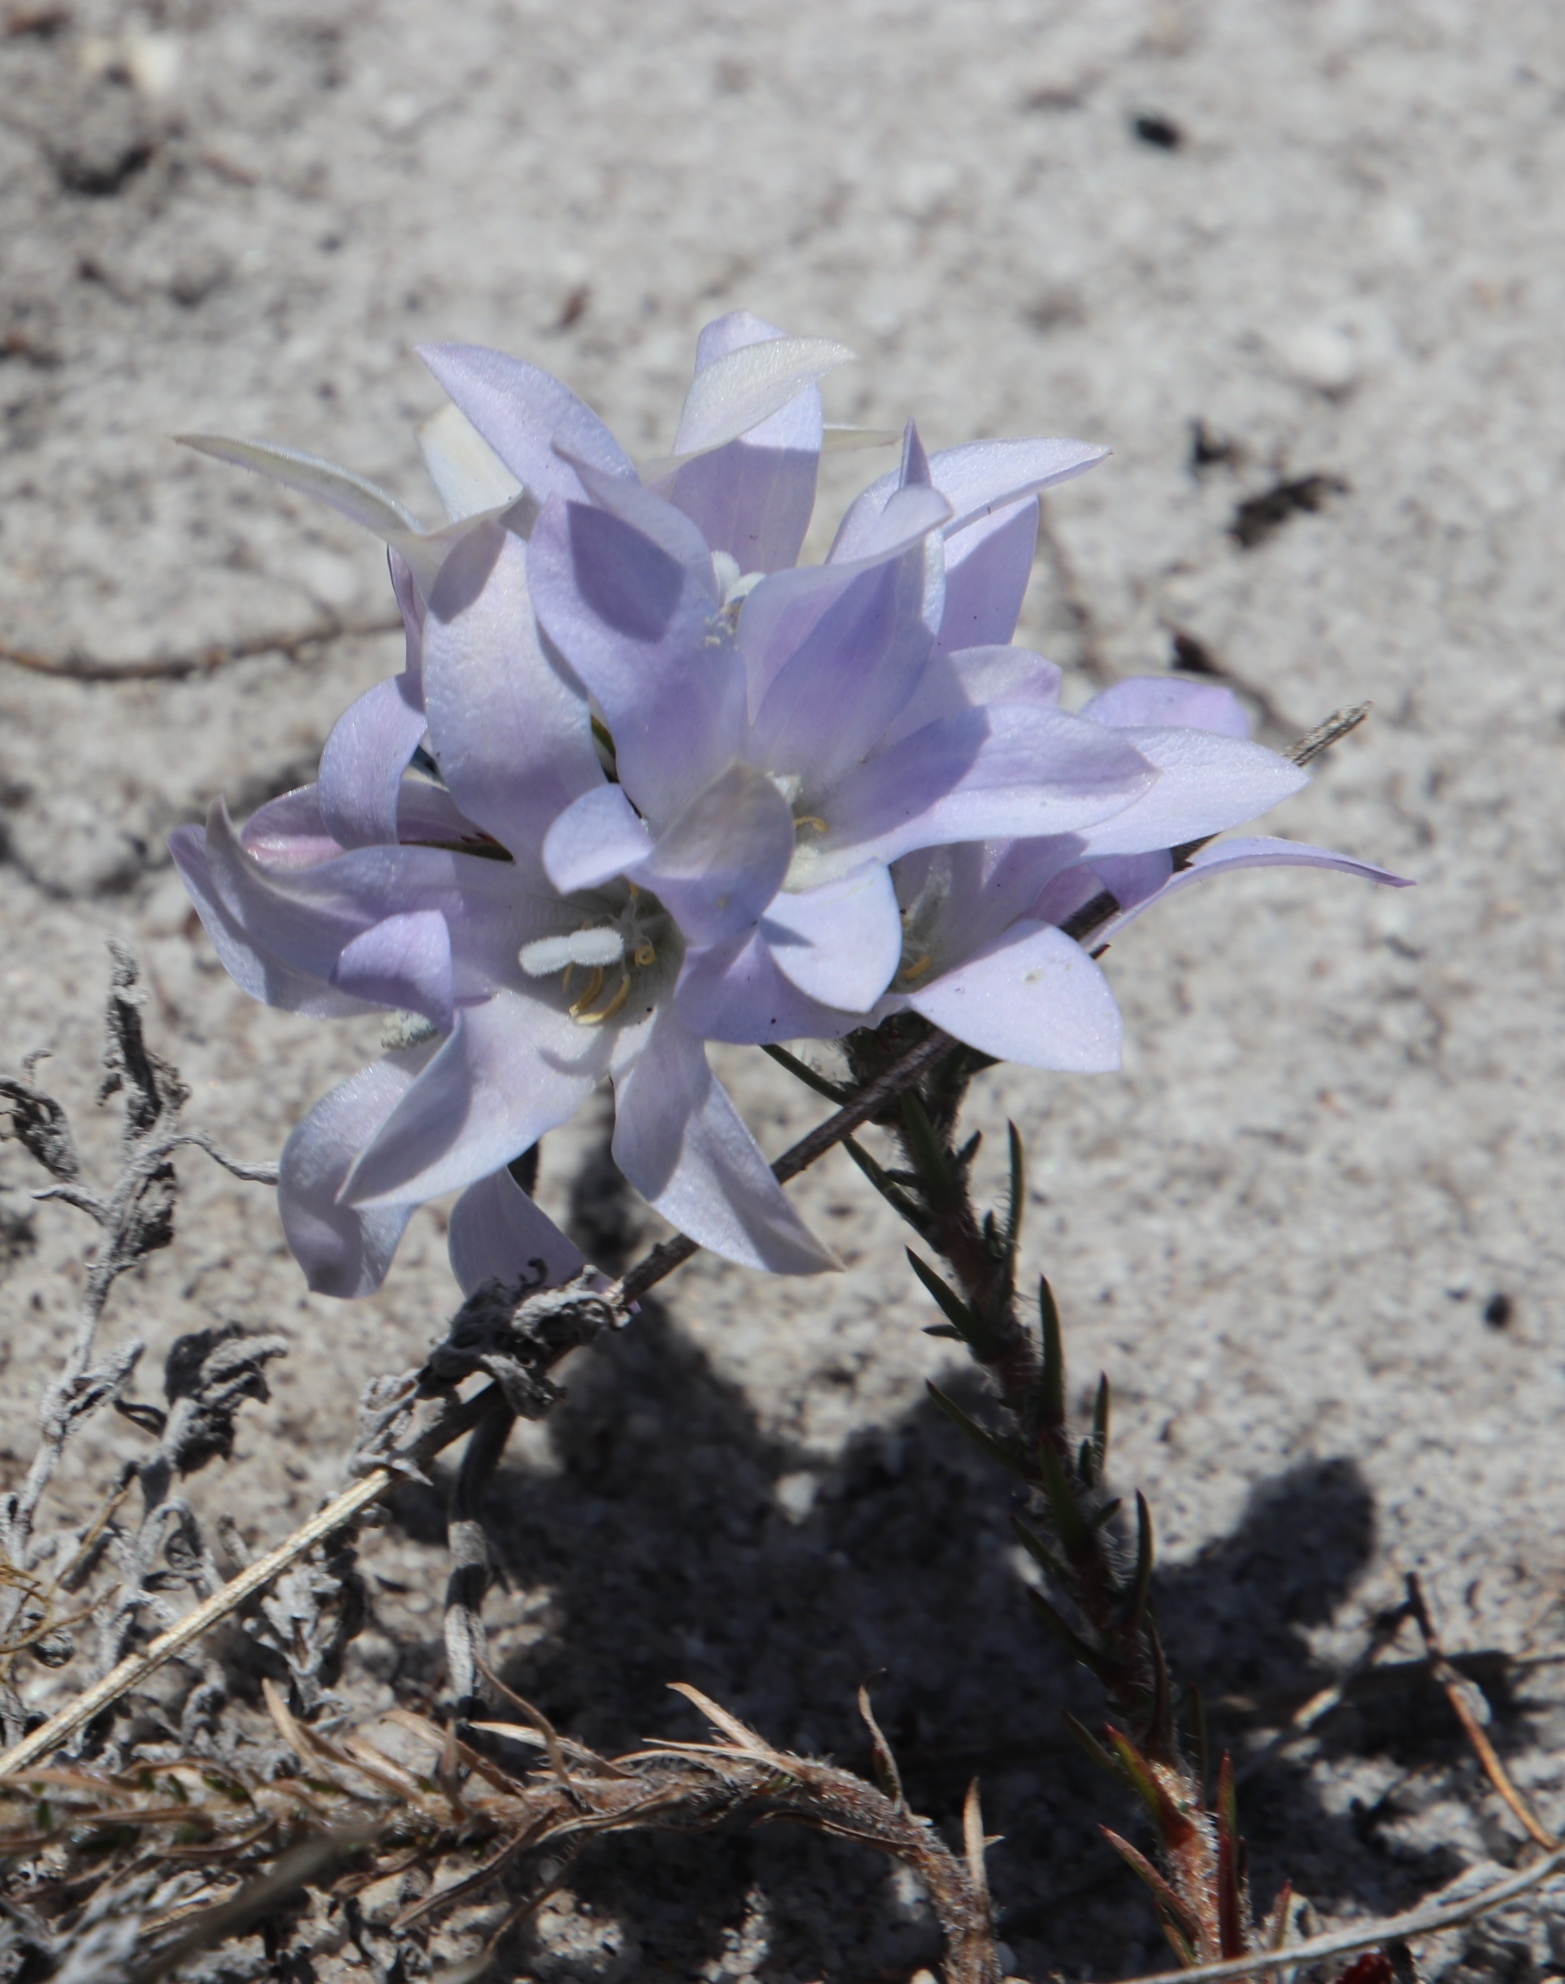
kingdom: Plantae
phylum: Tracheophyta
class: Magnoliopsida
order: Asterales
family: Campanulaceae
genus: Roella
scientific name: Roella prostrata
